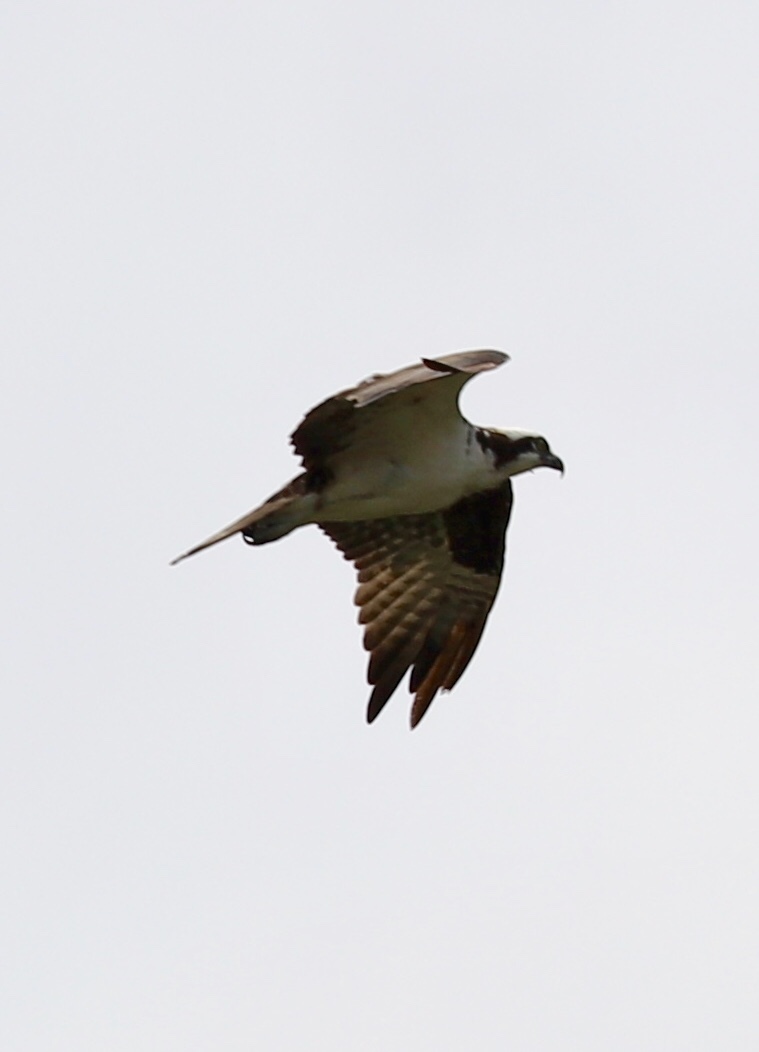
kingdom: Animalia
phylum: Chordata
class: Aves
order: Accipitriformes
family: Pandionidae
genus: Pandion
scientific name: Pandion haliaetus
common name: Osprey
